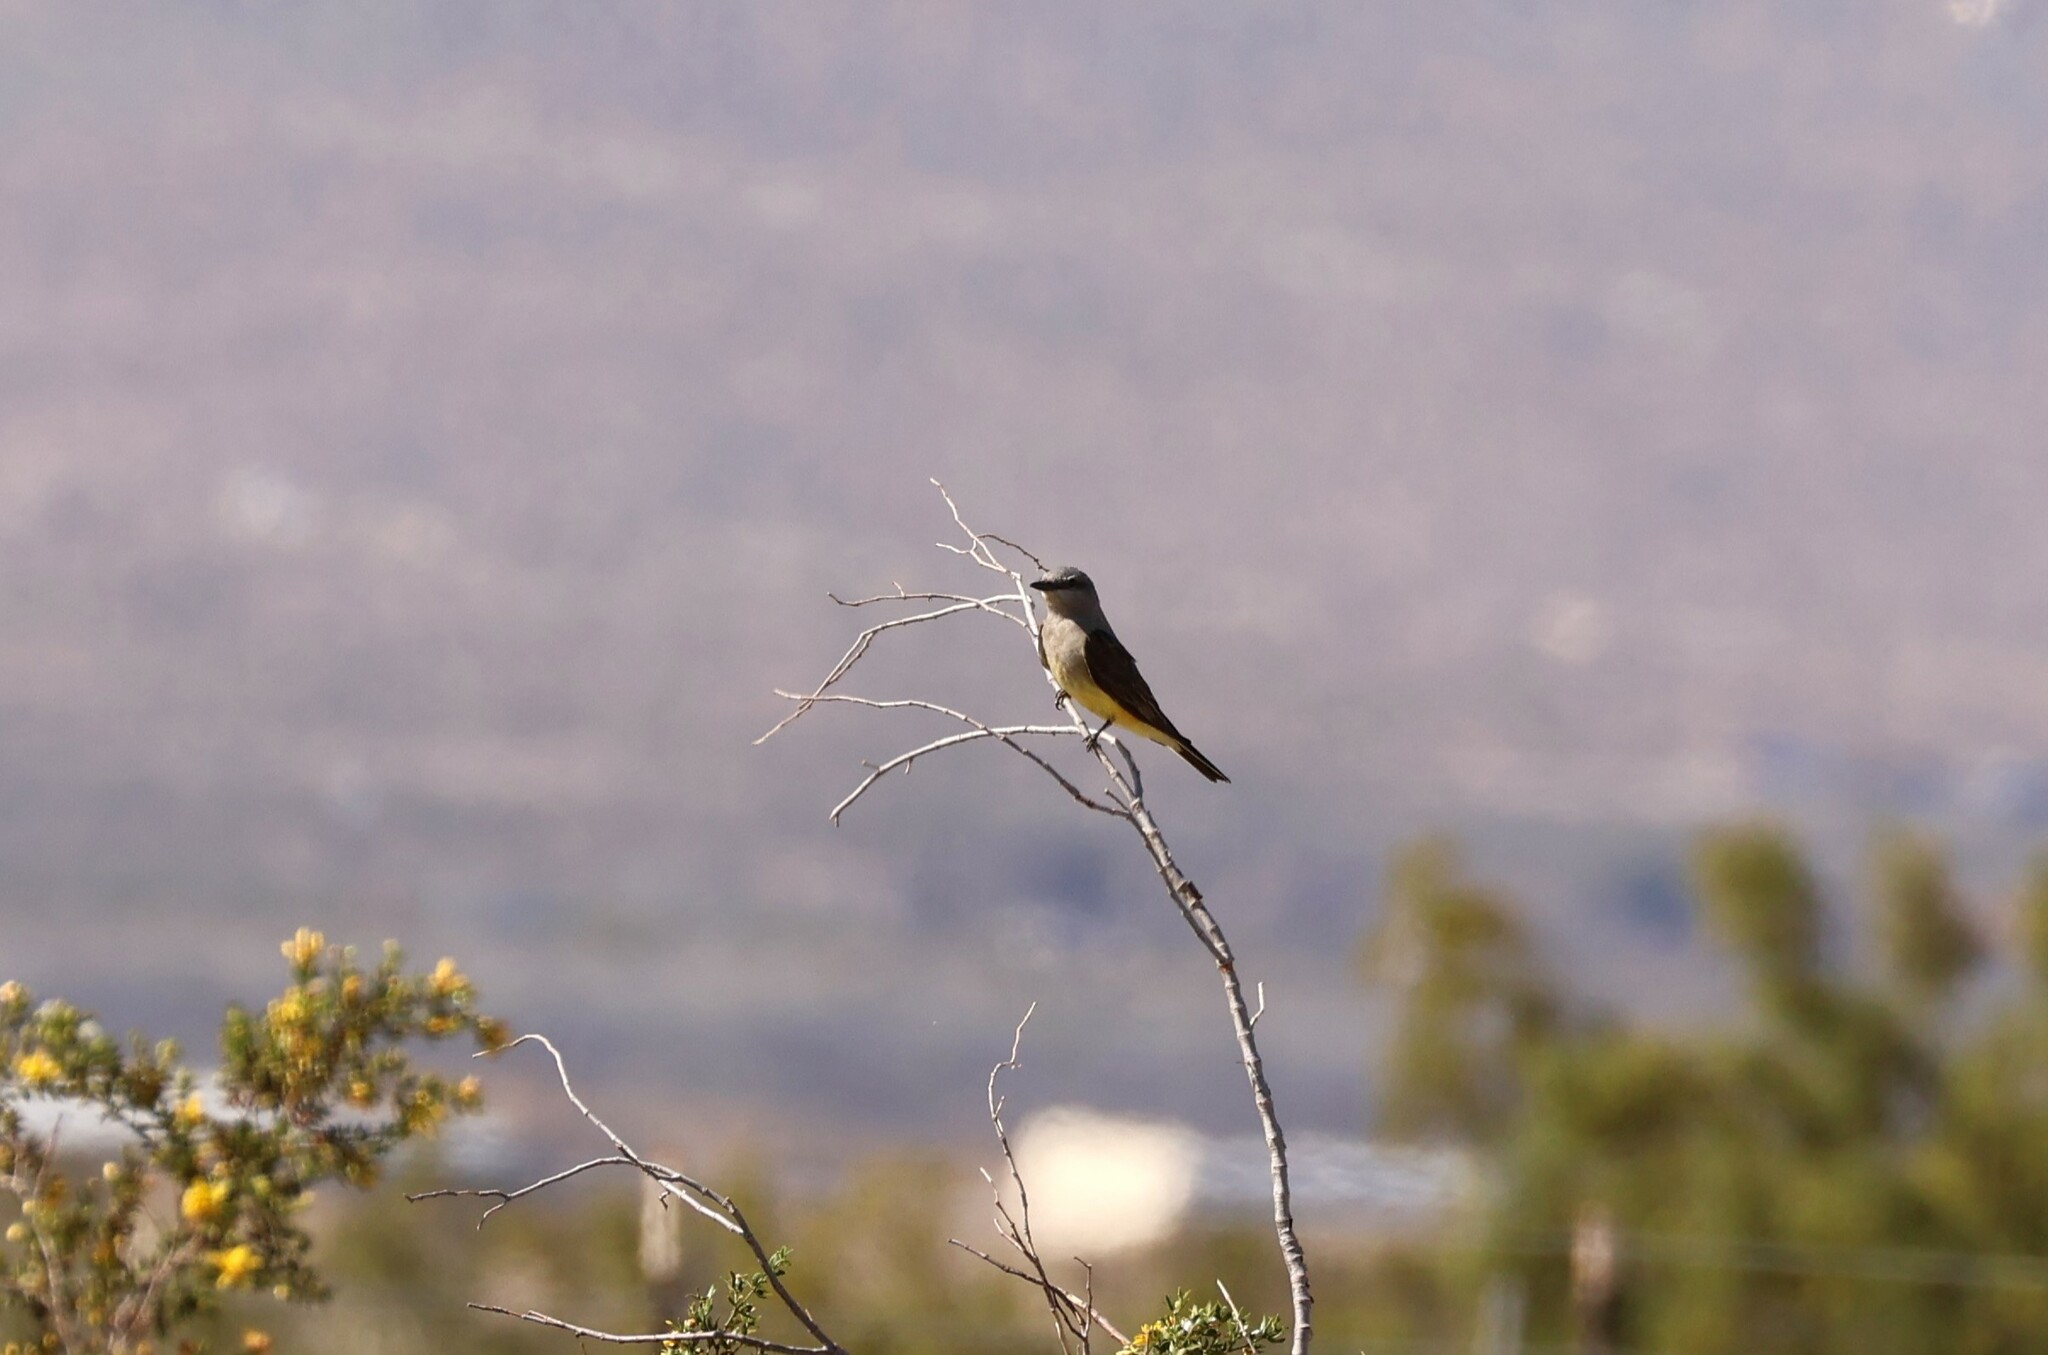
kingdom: Animalia
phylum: Chordata
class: Aves
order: Passeriformes
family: Tyrannidae
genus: Tyrannus
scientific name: Tyrannus verticalis
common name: Western kingbird
